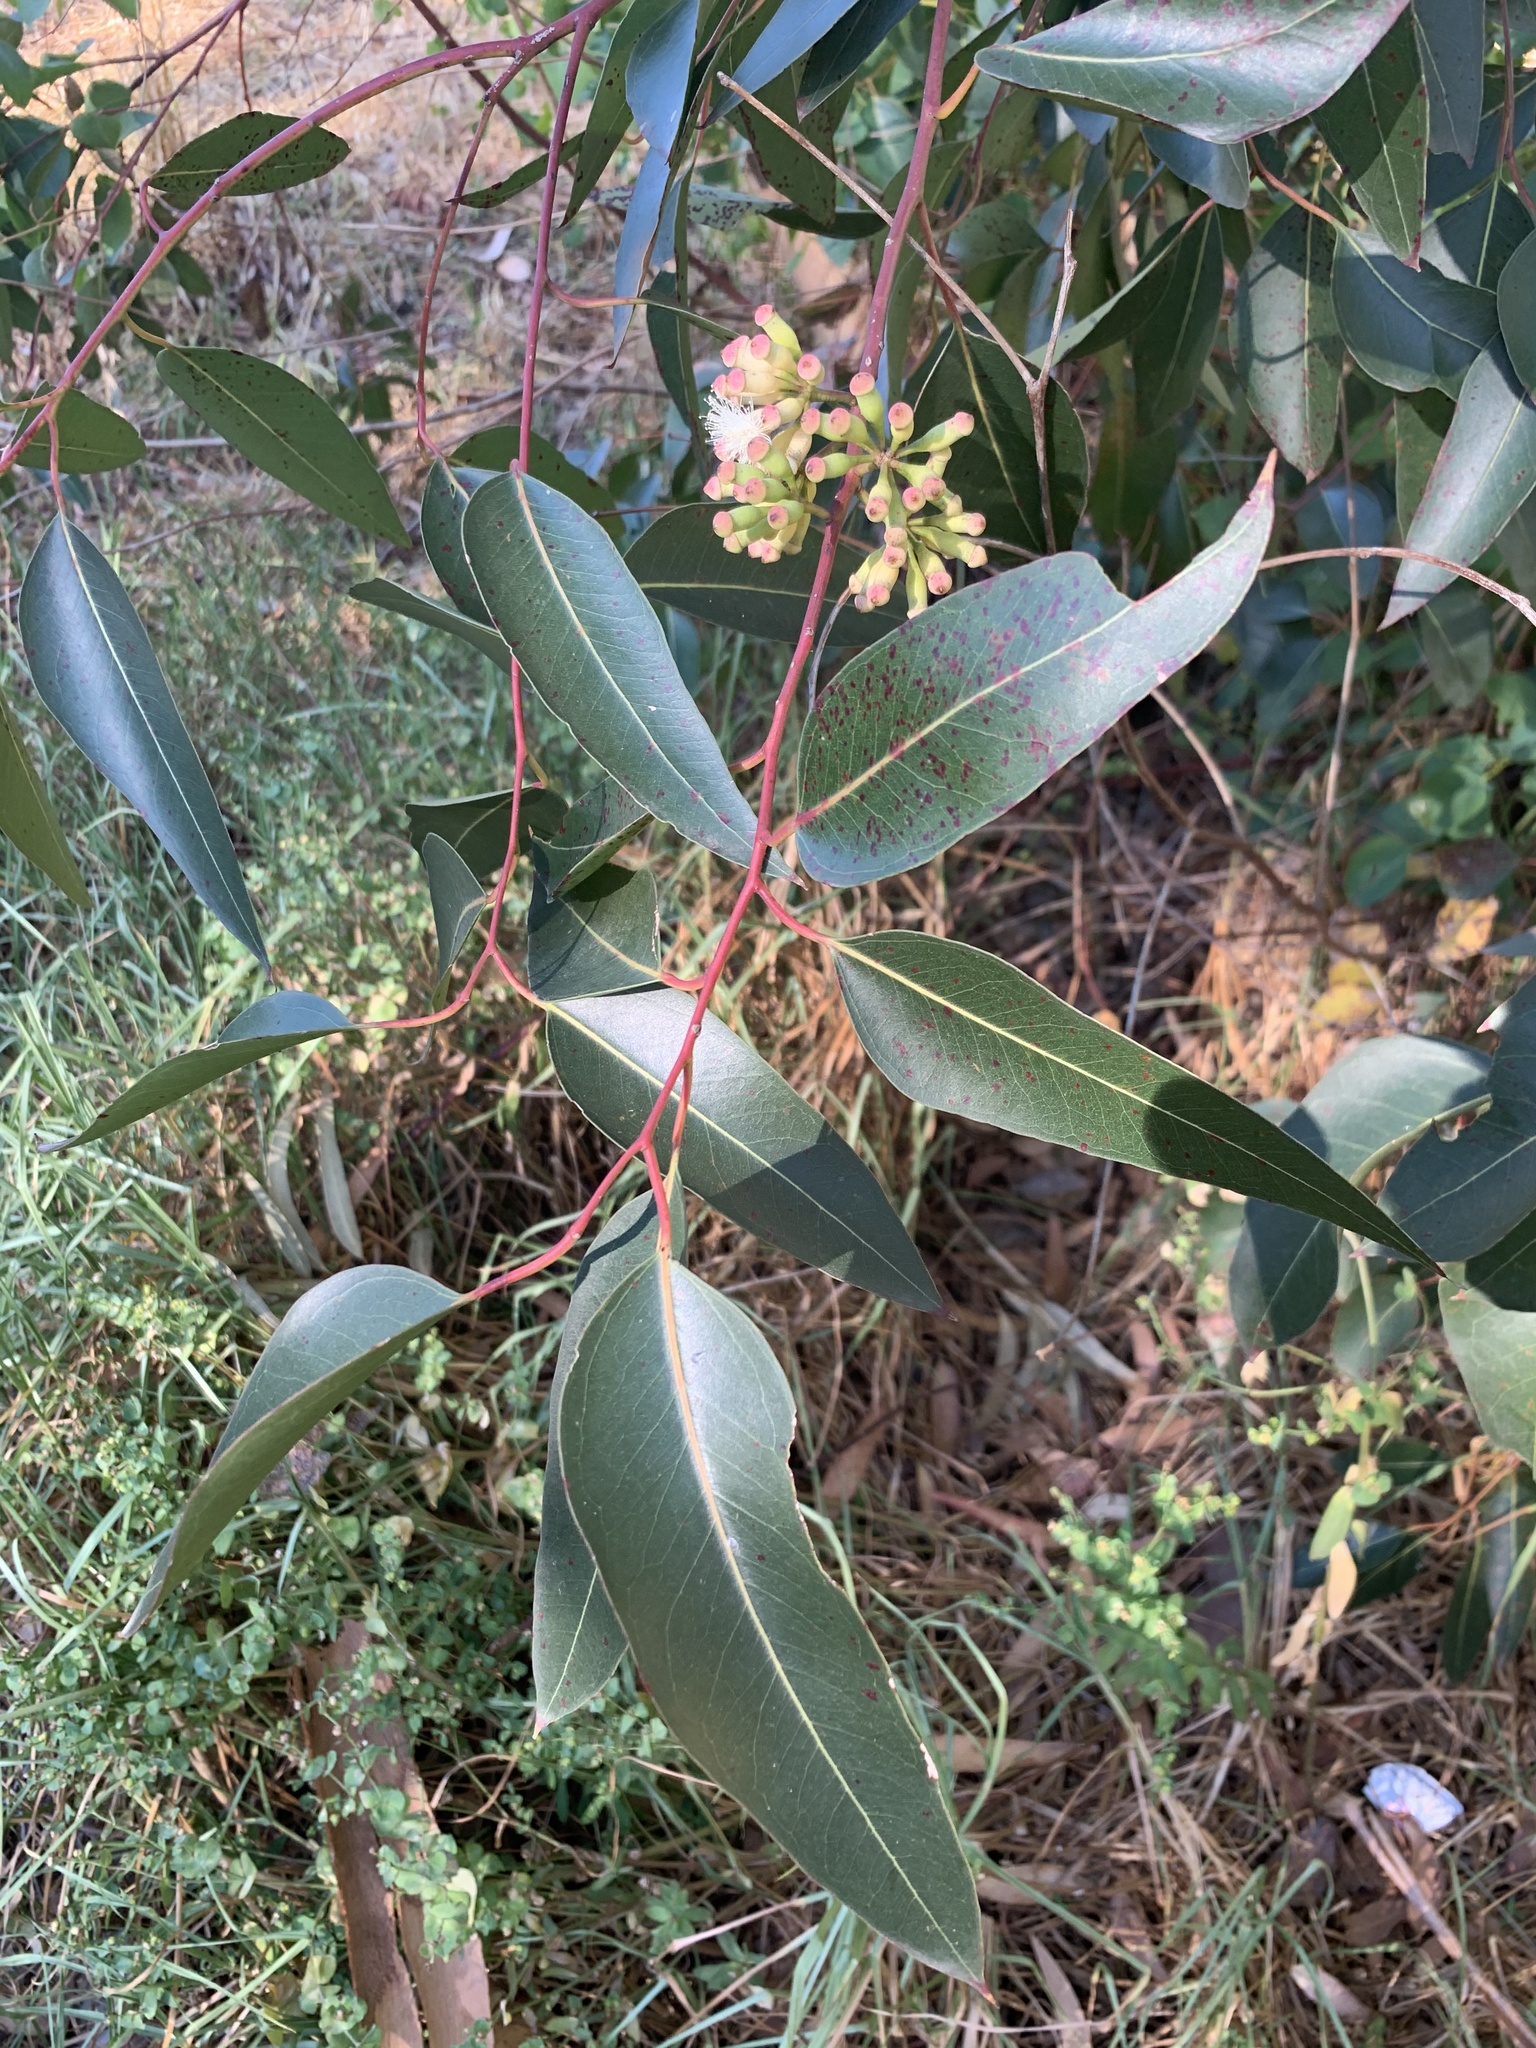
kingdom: Plantae
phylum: Tracheophyta
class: Magnoliopsida
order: Myrtales
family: Myrtaceae
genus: Eucalyptus
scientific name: Eucalyptus cladocalyx
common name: Sugargum
